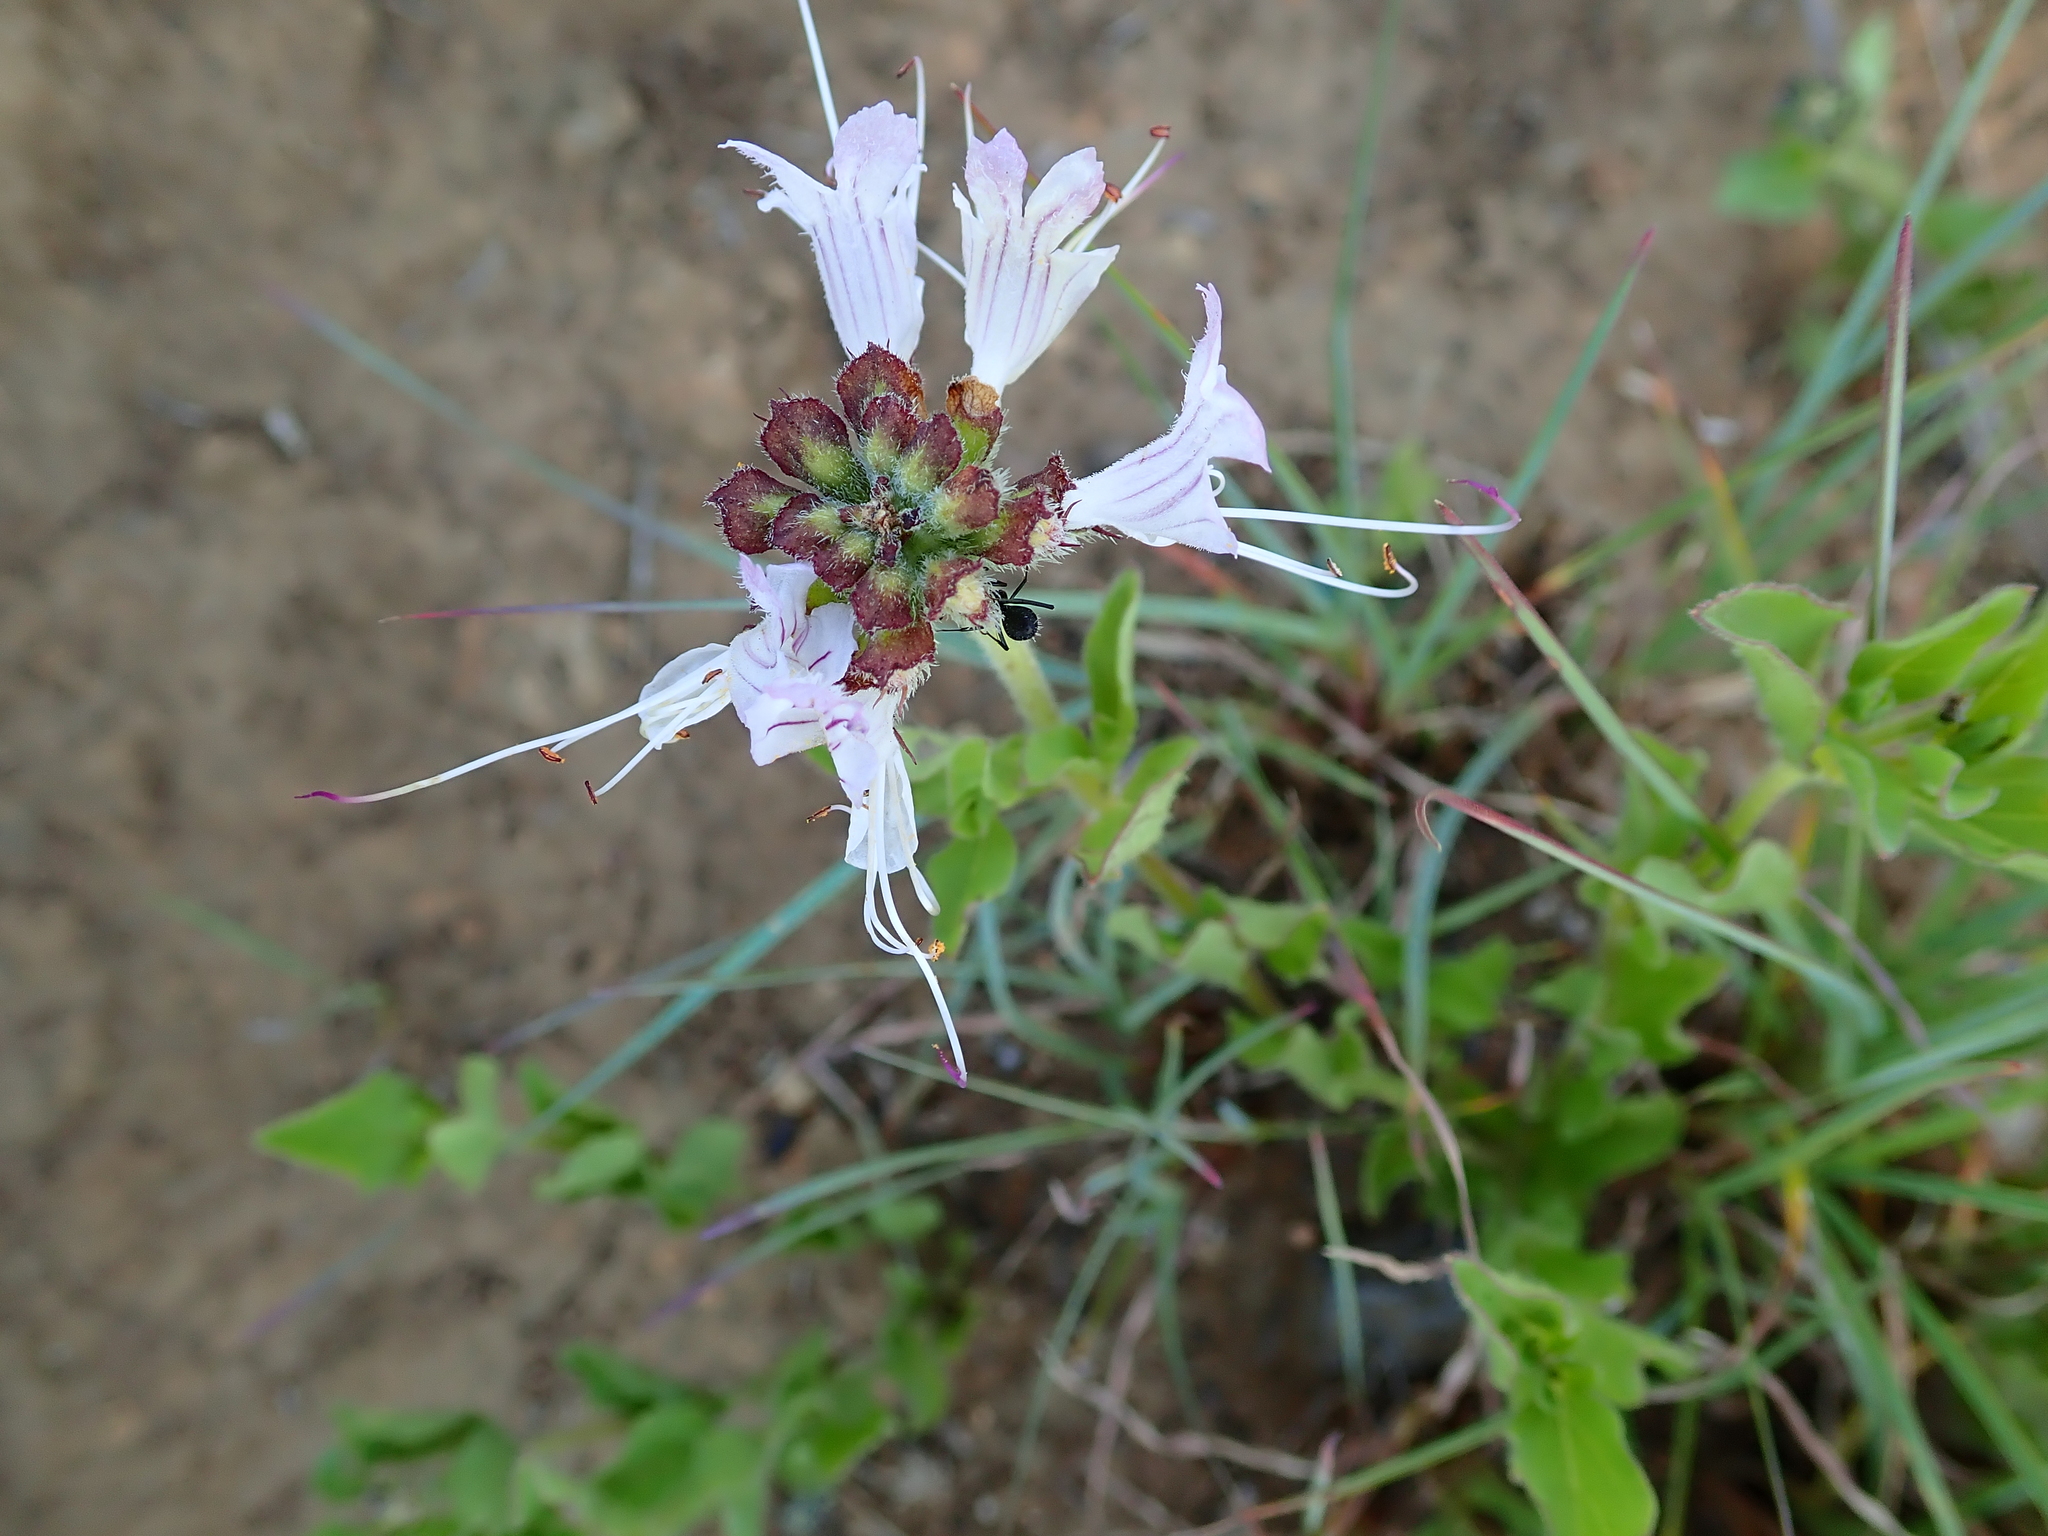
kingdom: Plantae
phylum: Tracheophyta
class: Magnoliopsida
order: Lamiales
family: Lamiaceae
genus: Ocimum
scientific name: Ocimum obovatum
